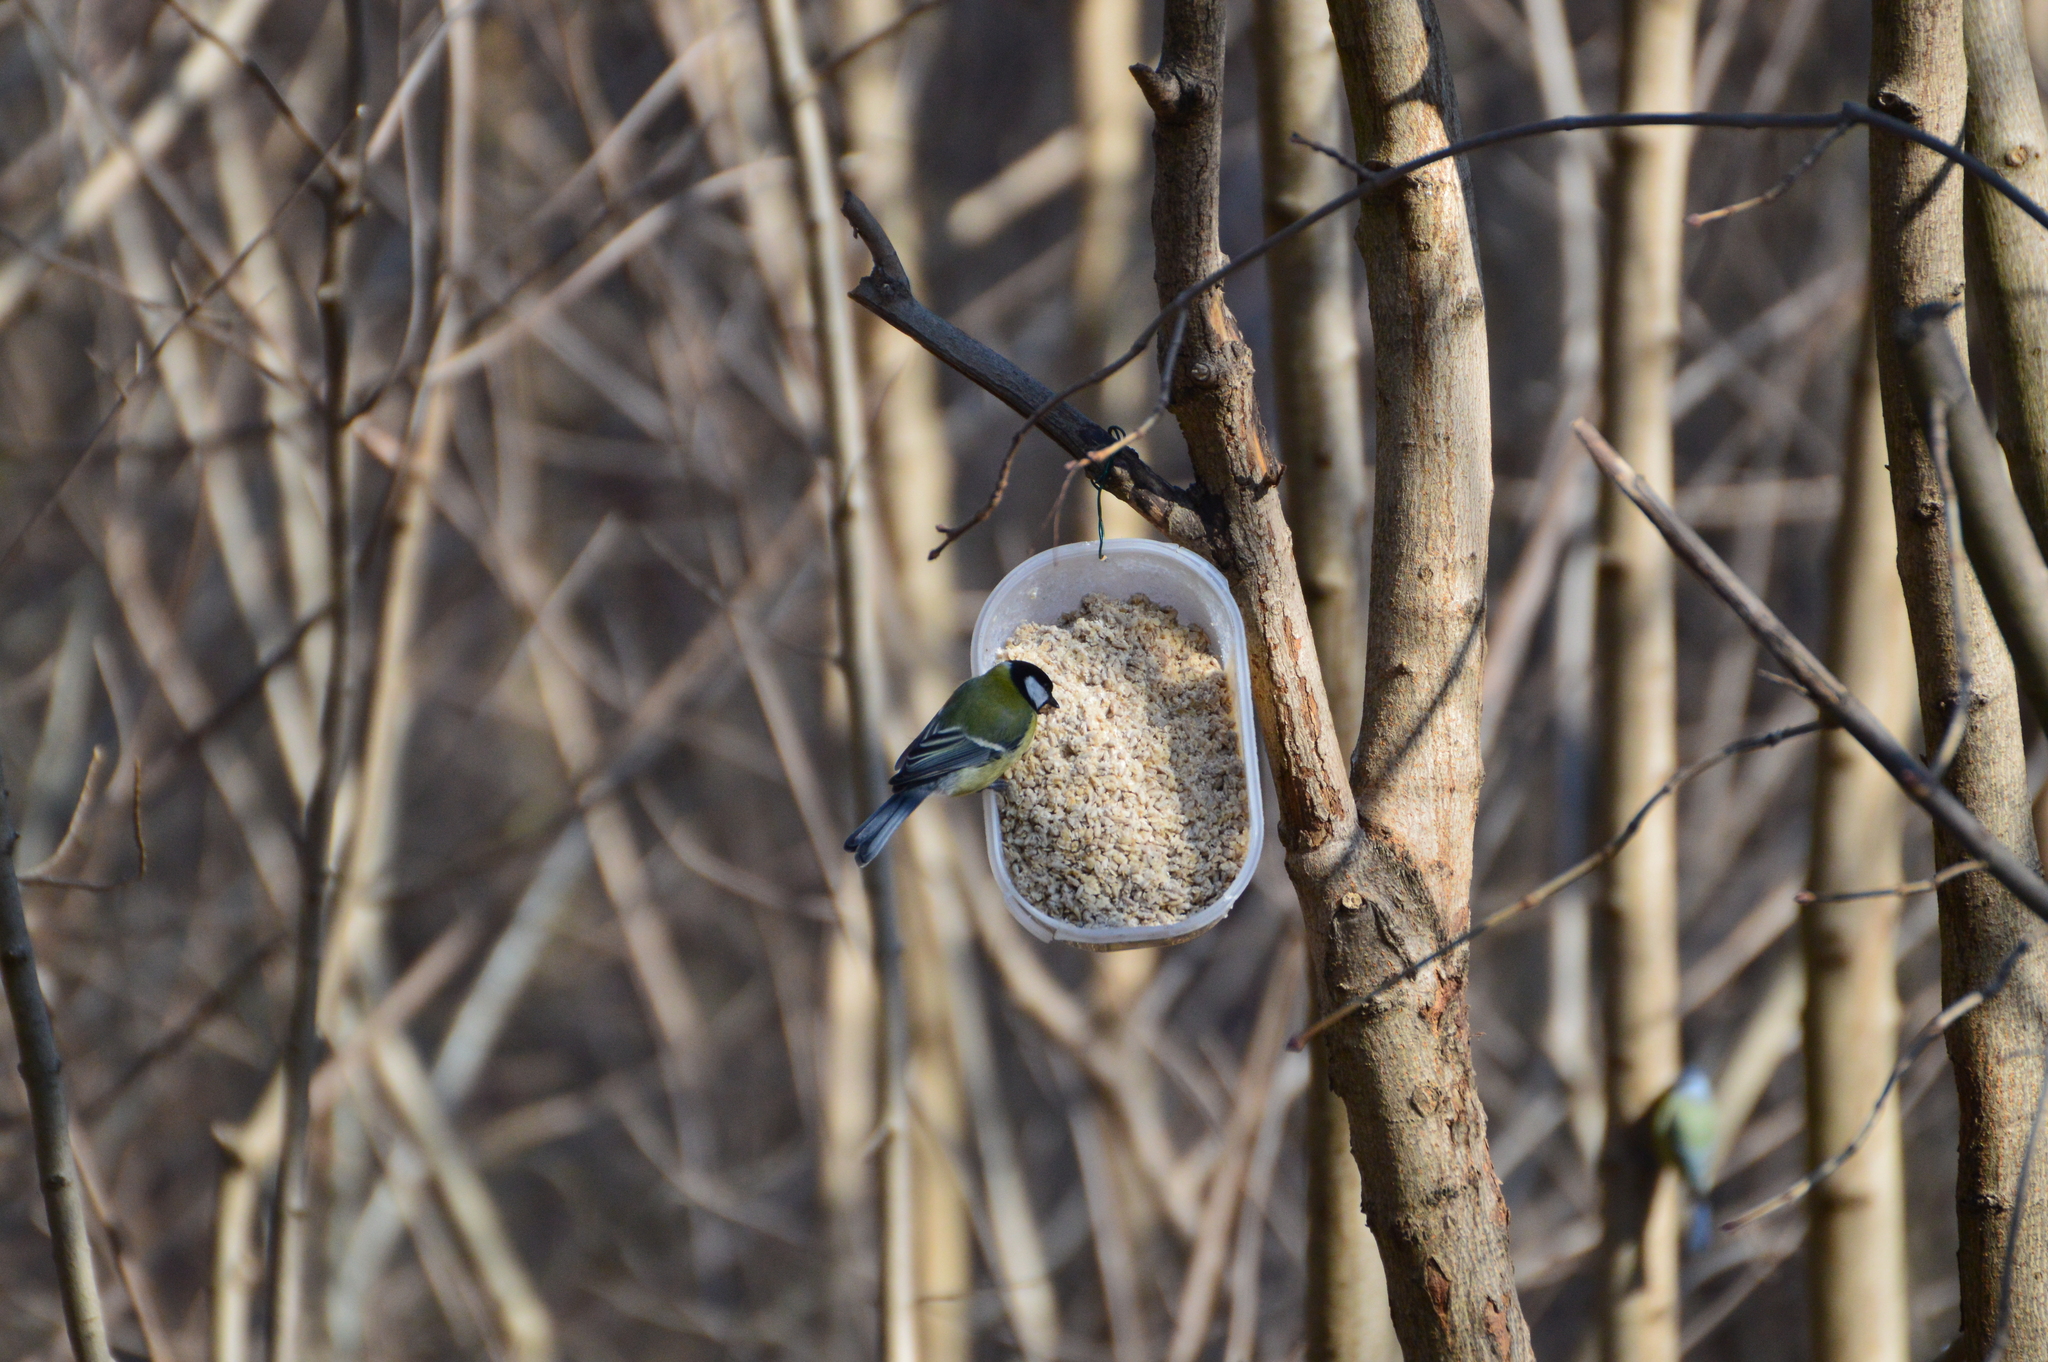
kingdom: Animalia
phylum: Chordata
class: Aves
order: Passeriformes
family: Paridae
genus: Parus
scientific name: Parus major
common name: Great tit
